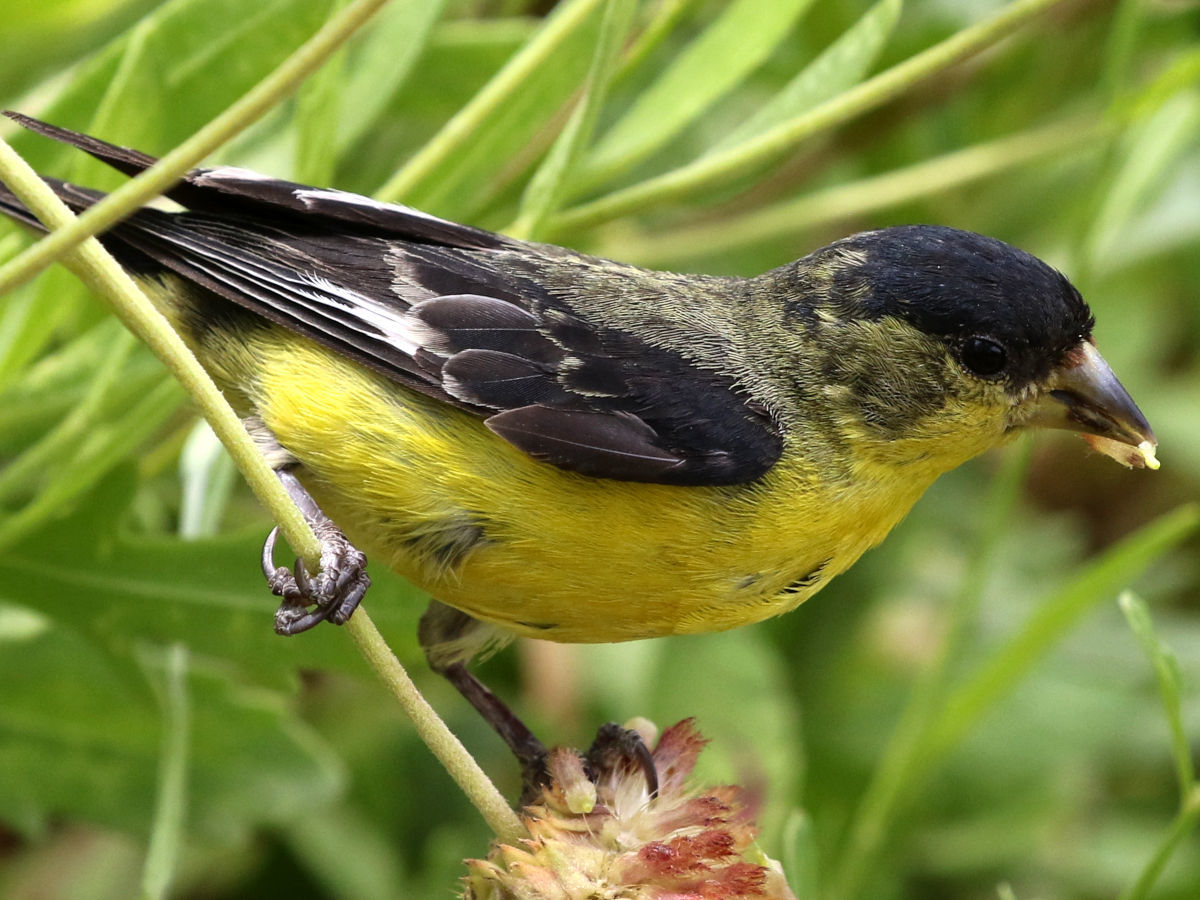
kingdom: Animalia
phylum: Chordata
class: Aves
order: Passeriformes
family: Fringillidae
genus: Spinus
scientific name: Spinus psaltria
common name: Lesser goldfinch
